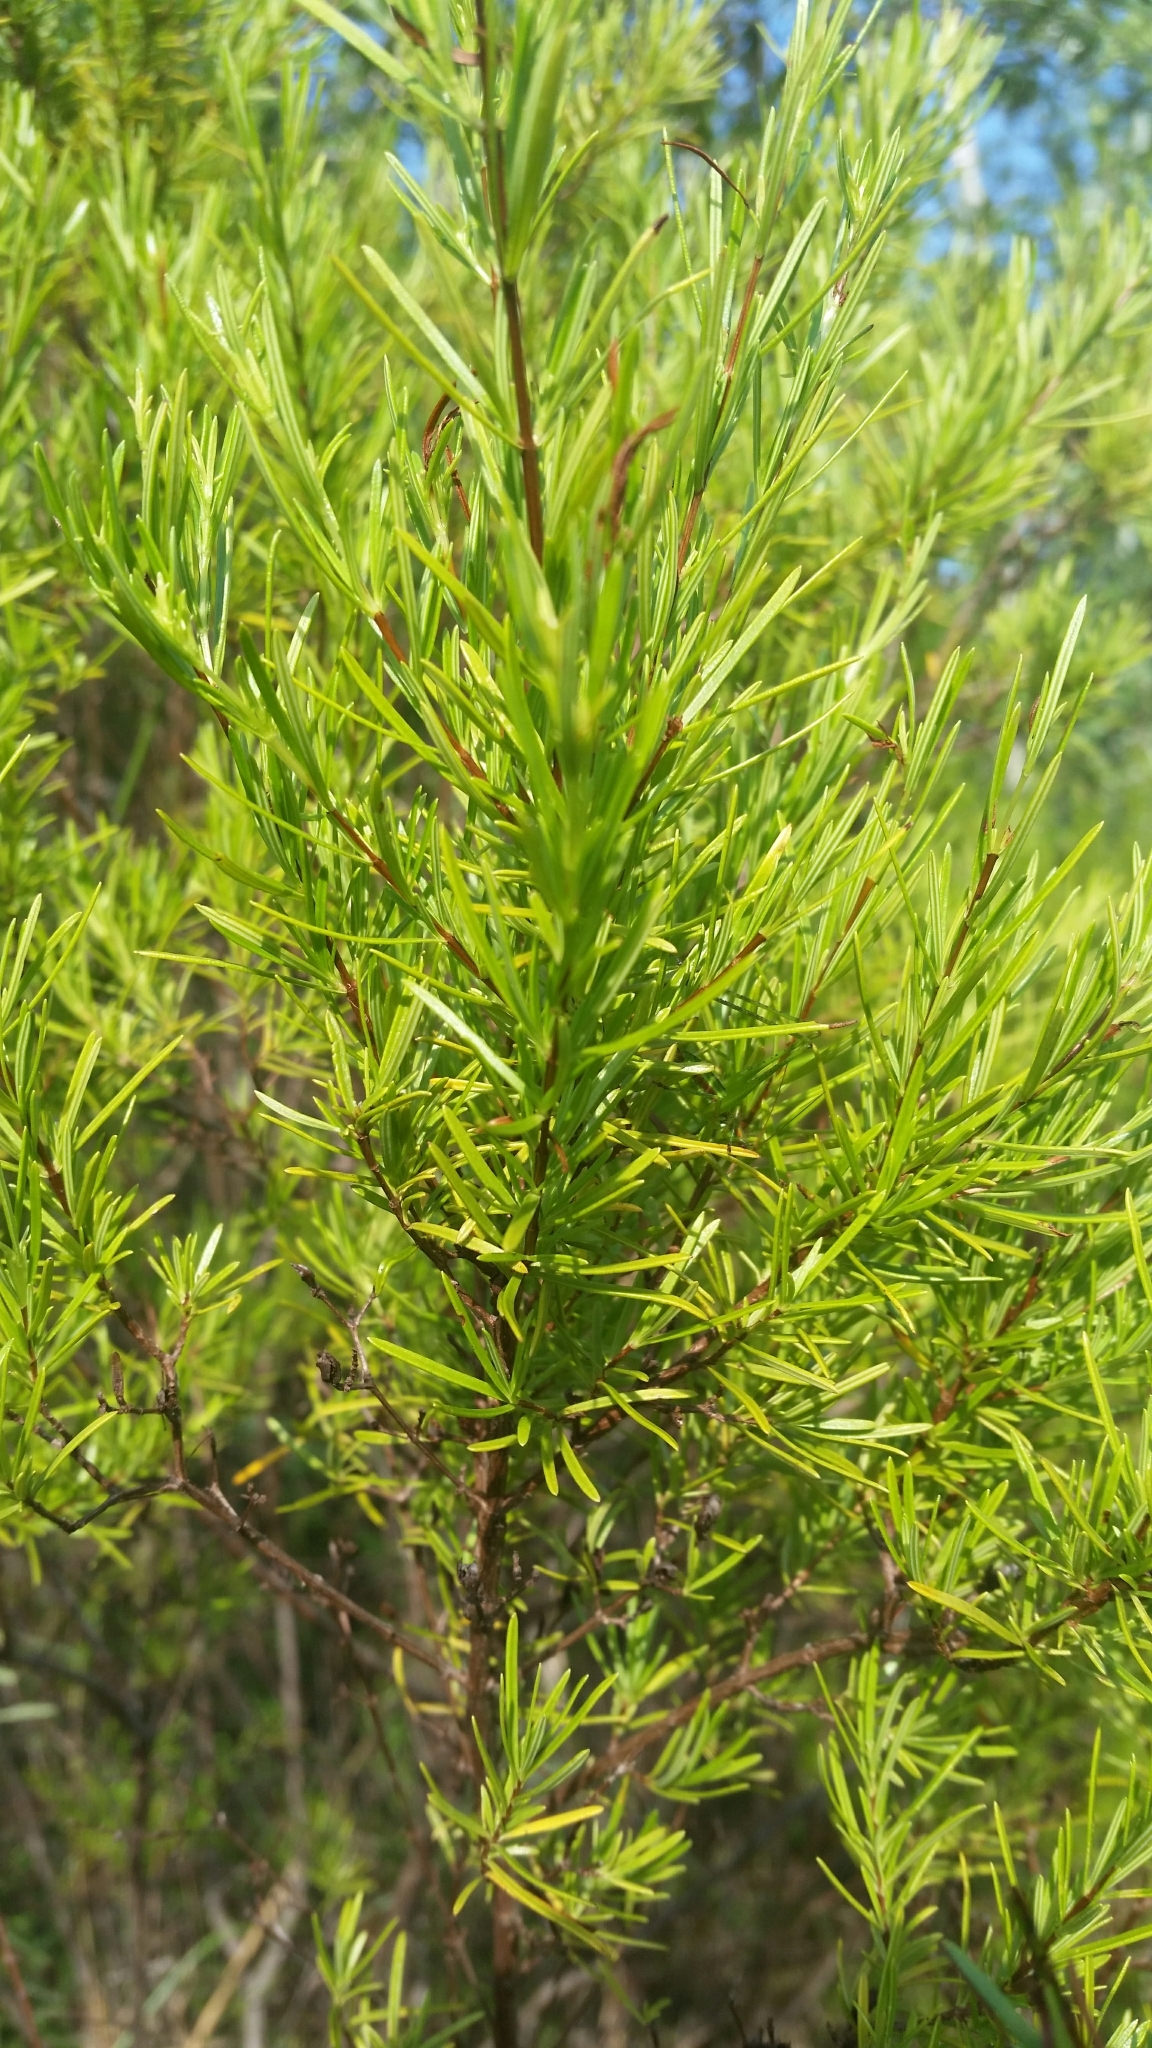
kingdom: Plantae
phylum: Tracheophyta
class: Magnoliopsida
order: Malpighiales
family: Hypericaceae
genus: Hypericum
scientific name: Hypericum nitidum
